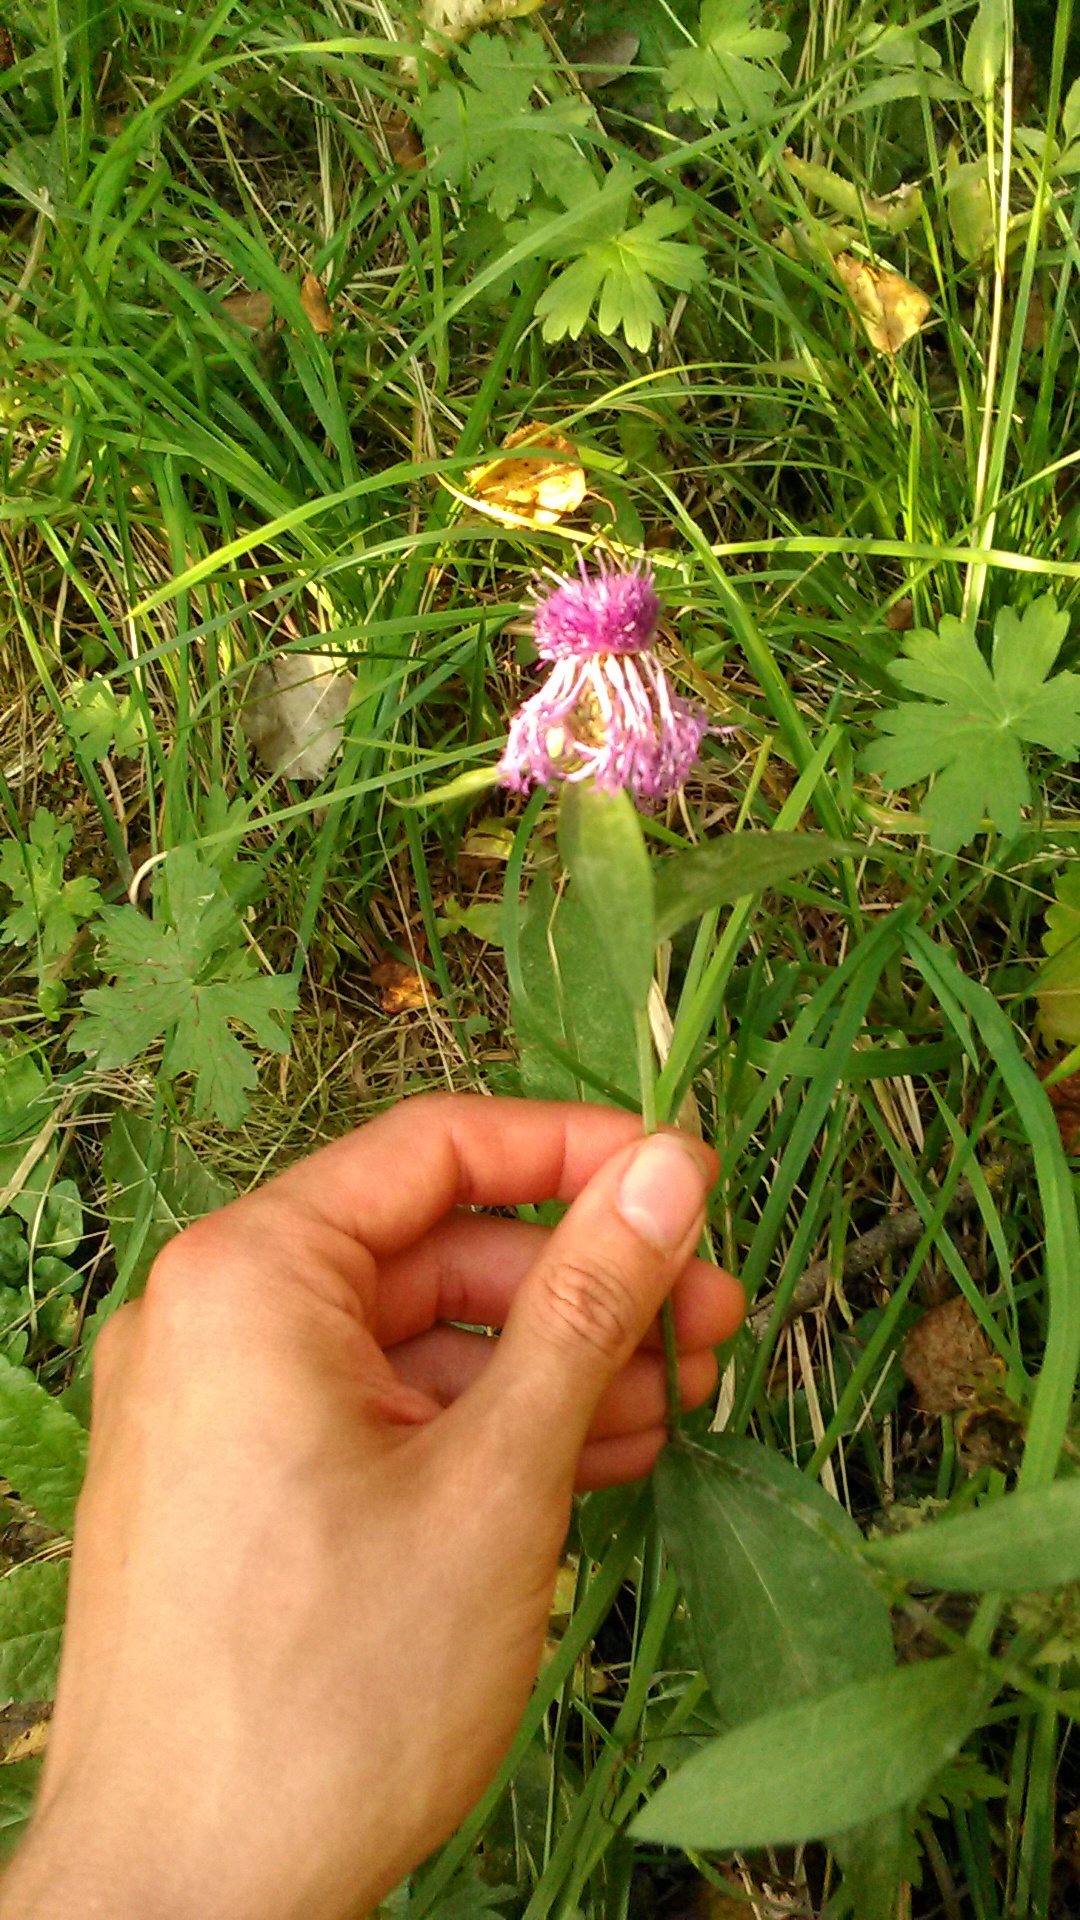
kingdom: Plantae
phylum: Tracheophyta
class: Magnoliopsida
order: Asterales
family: Asteraceae
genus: Centaurea
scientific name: Centaurea jacea
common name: Brown knapweed
